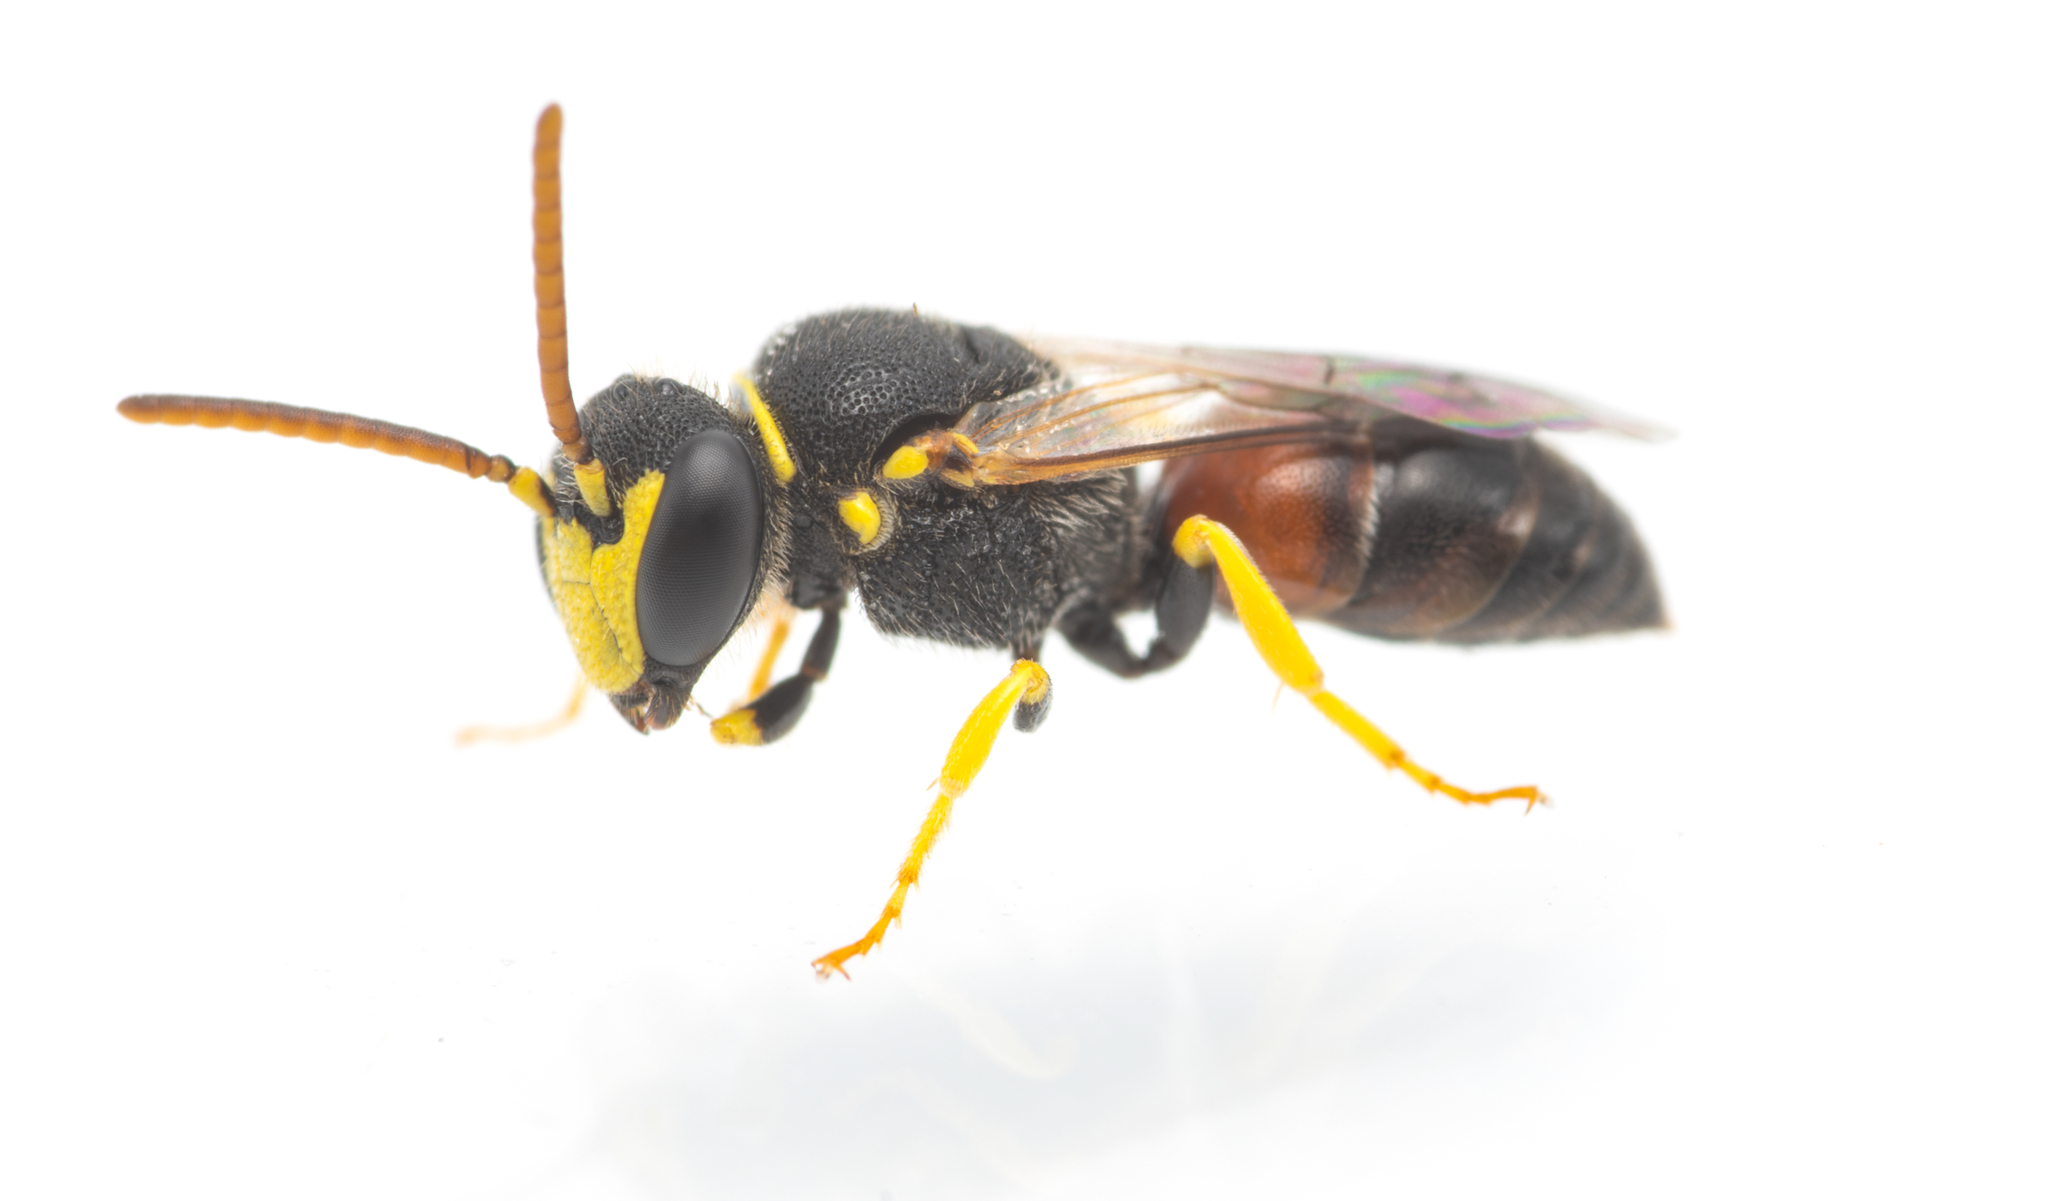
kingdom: Animalia
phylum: Arthropoda
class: Insecta
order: Hymenoptera
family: Colletidae
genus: Hylaeus
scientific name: Hylaeus sulphuripes
